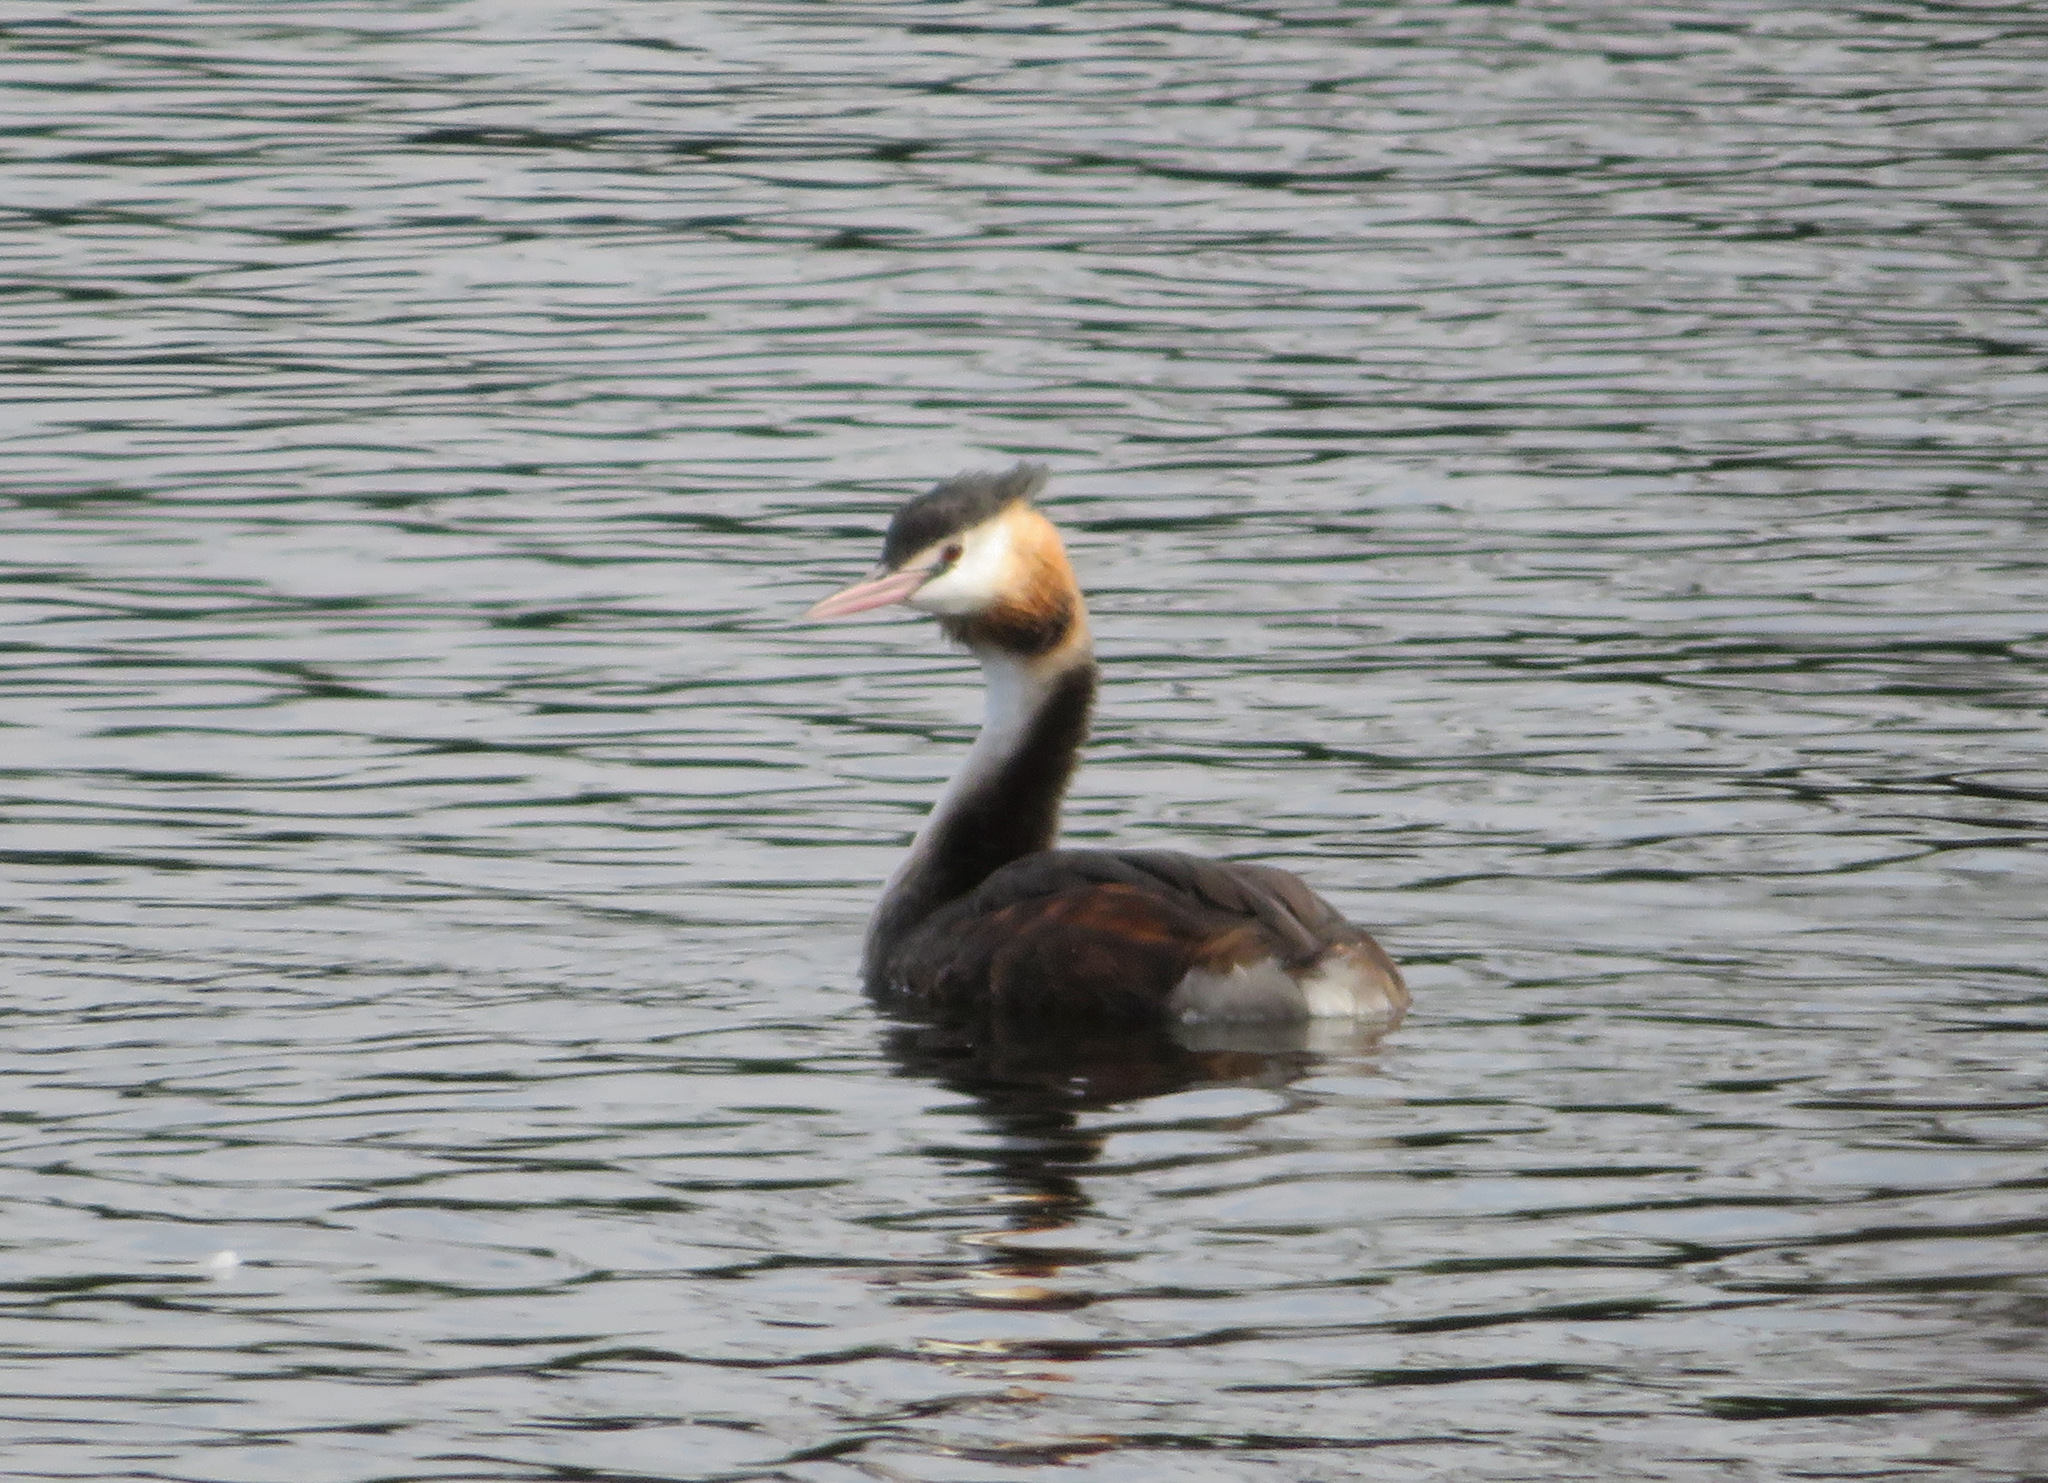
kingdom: Animalia
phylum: Chordata
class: Aves
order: Podicipediformes
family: Podicipedidae
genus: Podiceps
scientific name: Podiceps cristatus
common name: Great crested grebe
